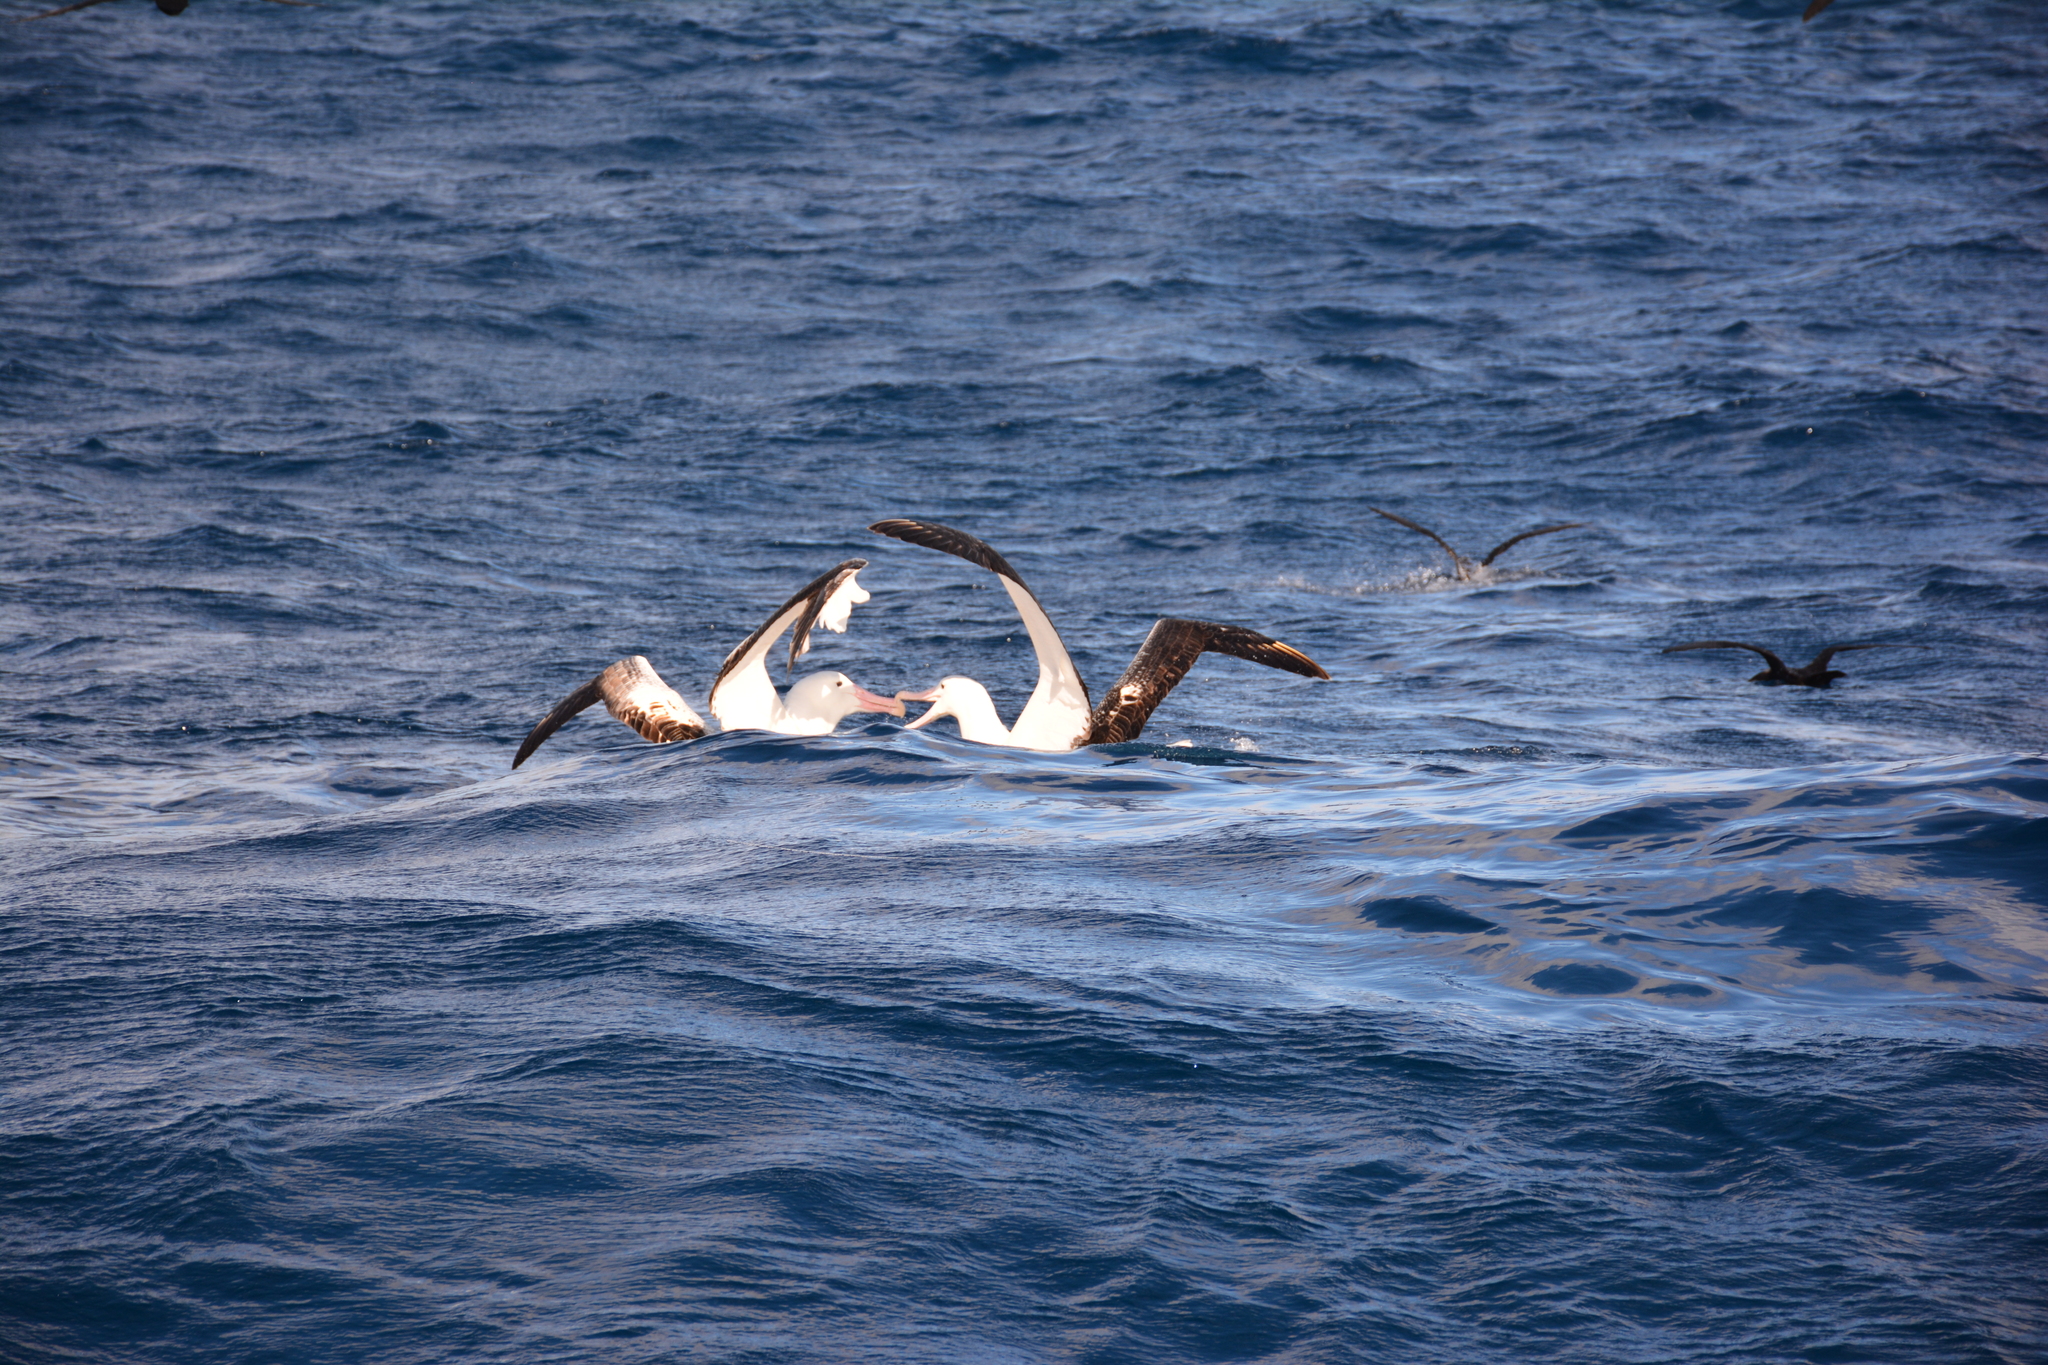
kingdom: Animalia
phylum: Chordata
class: Aves
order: Procellariiformes
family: Diomedeidae
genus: Diomedea
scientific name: Diomedea epomophora
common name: Southern royal albatross
